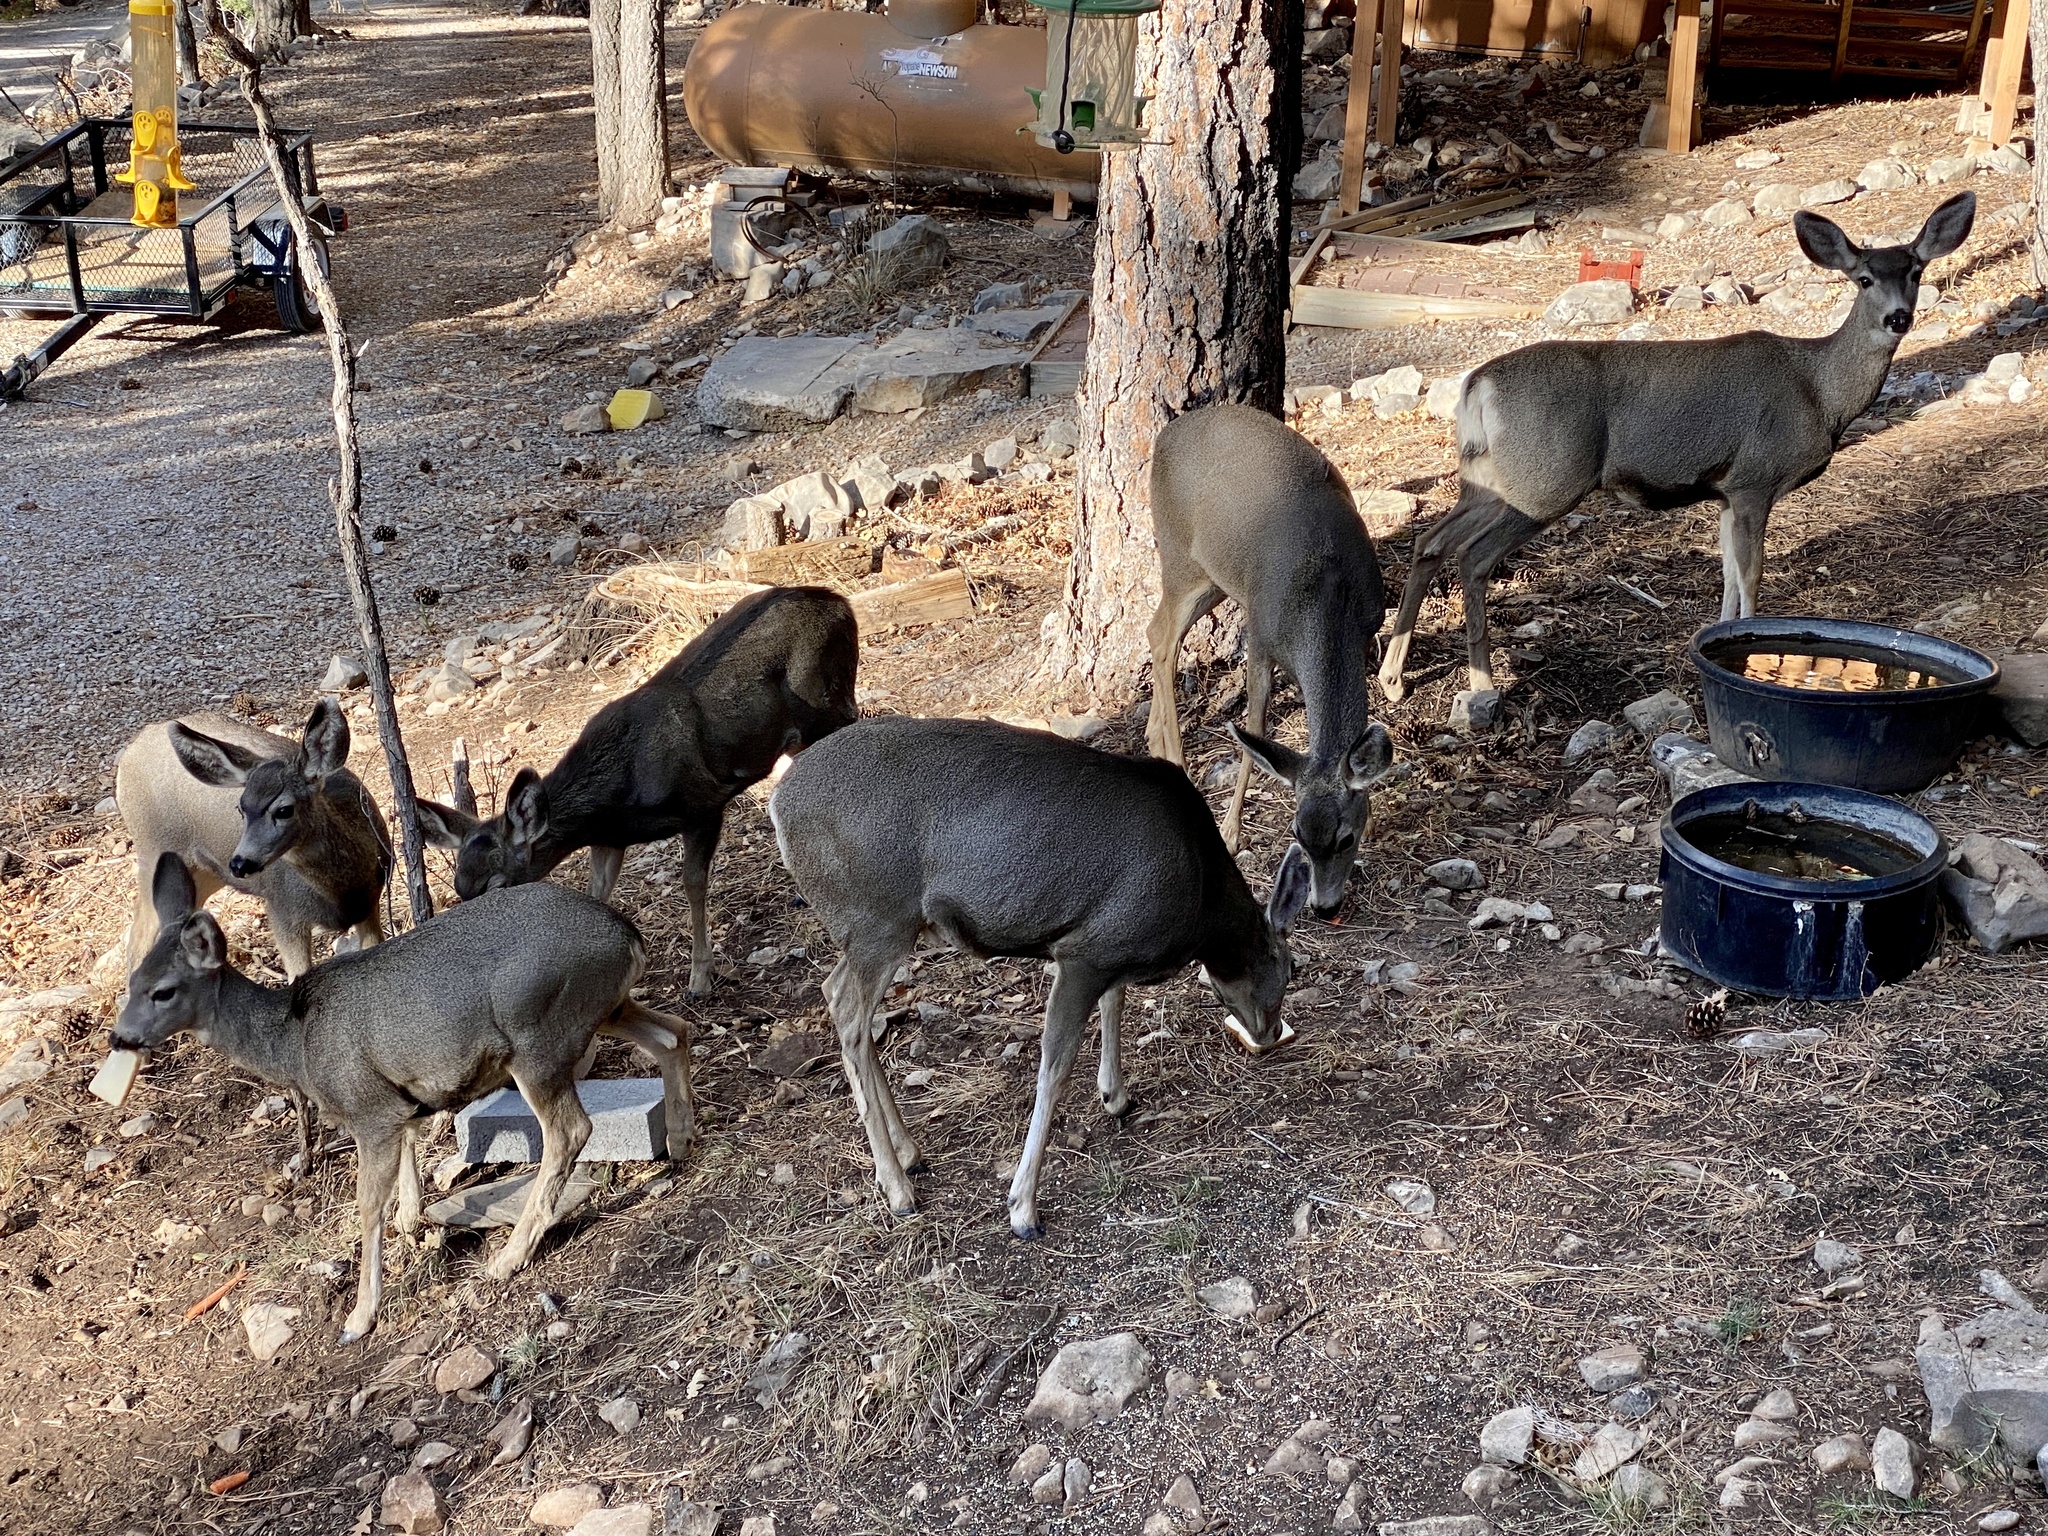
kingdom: Animalia
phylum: Chordata
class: Mammalia
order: Artiodactyla
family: Cervidae
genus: Odocoileus
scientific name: Odocoileus hemionus
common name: Mule deer
